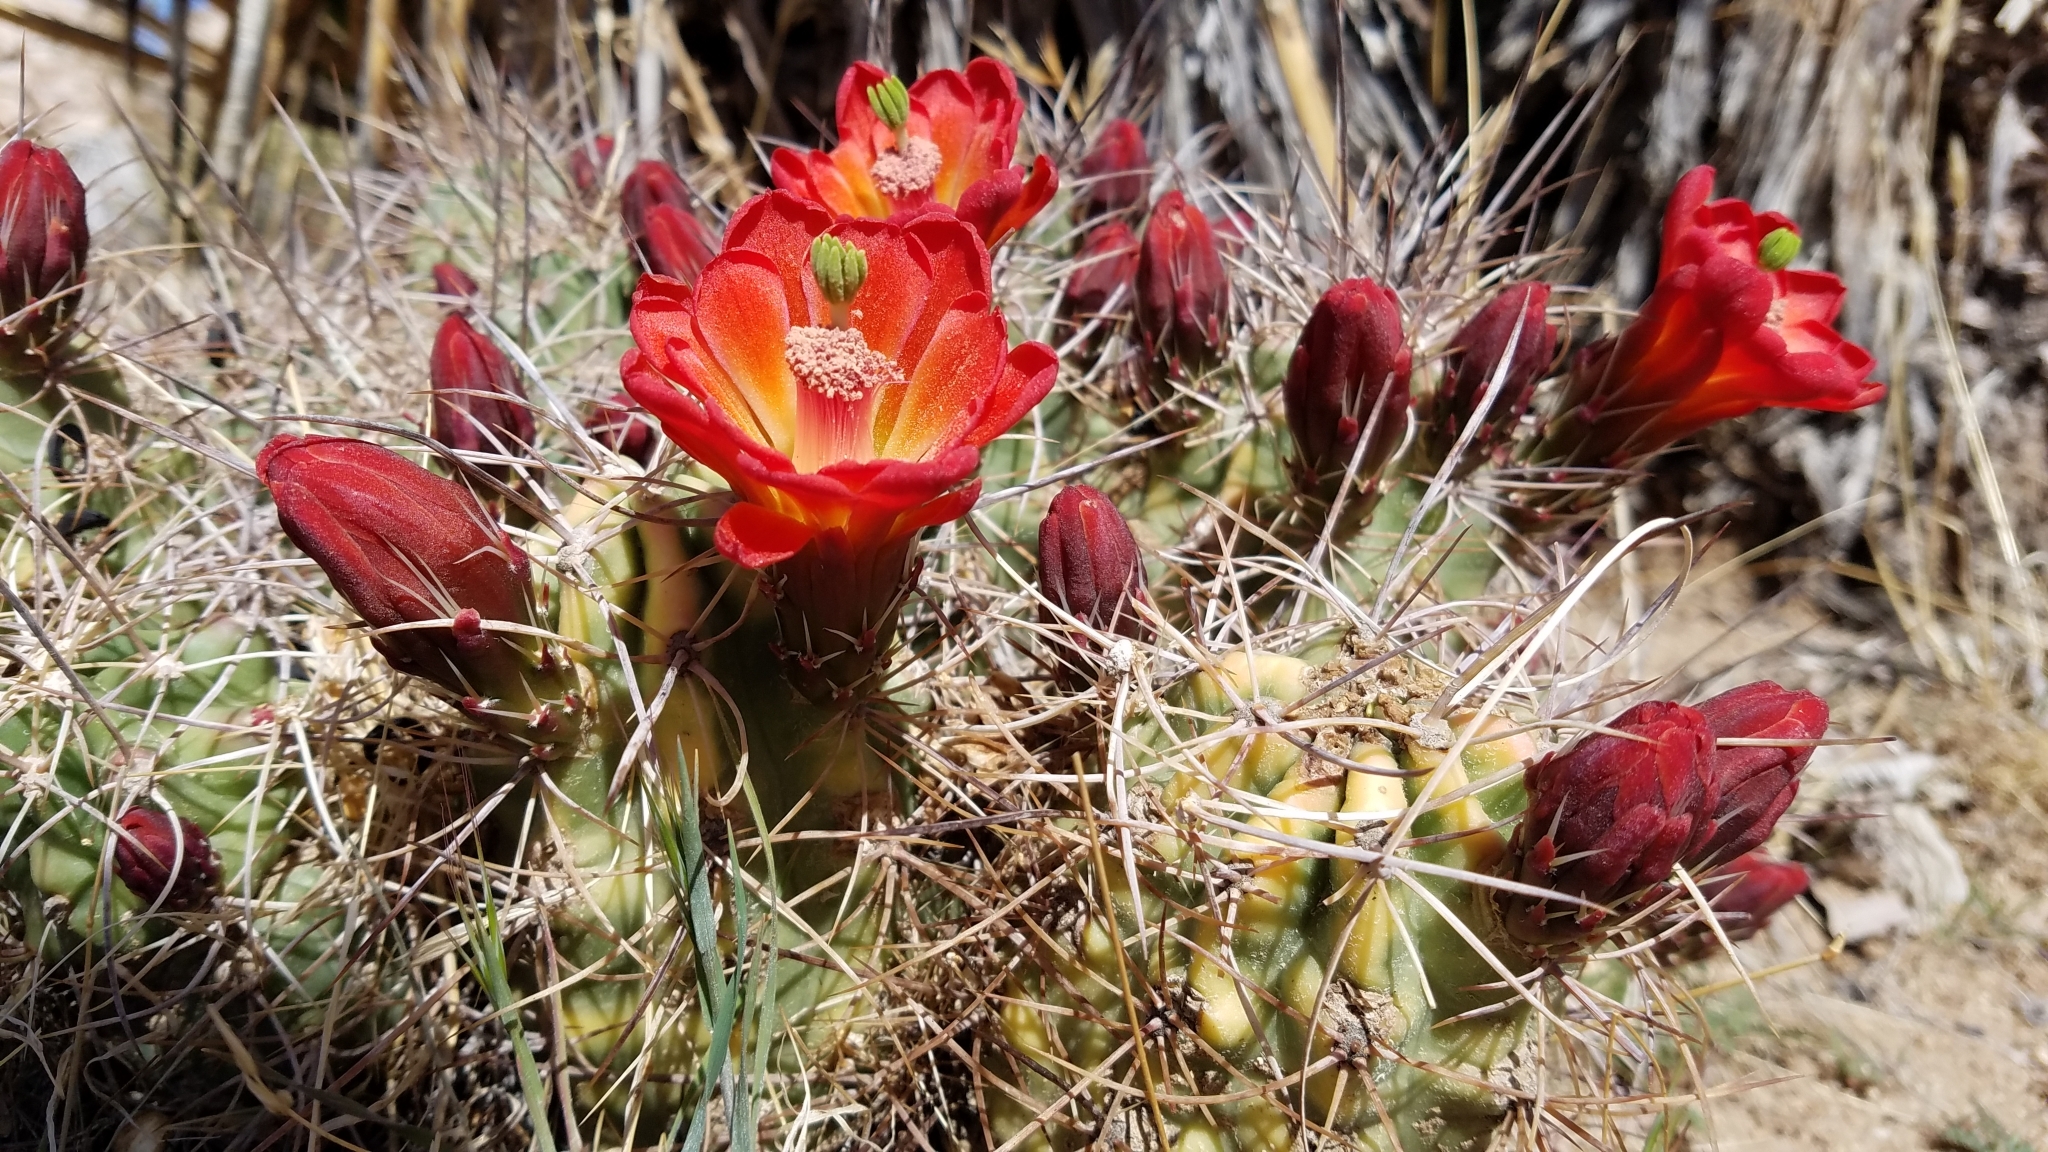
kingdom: Plantae
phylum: Tracheophyta
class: Magnoliopsida
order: Caryophyllales
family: Cactaceae
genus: Echinocereus
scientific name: Echinocereus triglochidiatus
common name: Claretcup hedgehog
